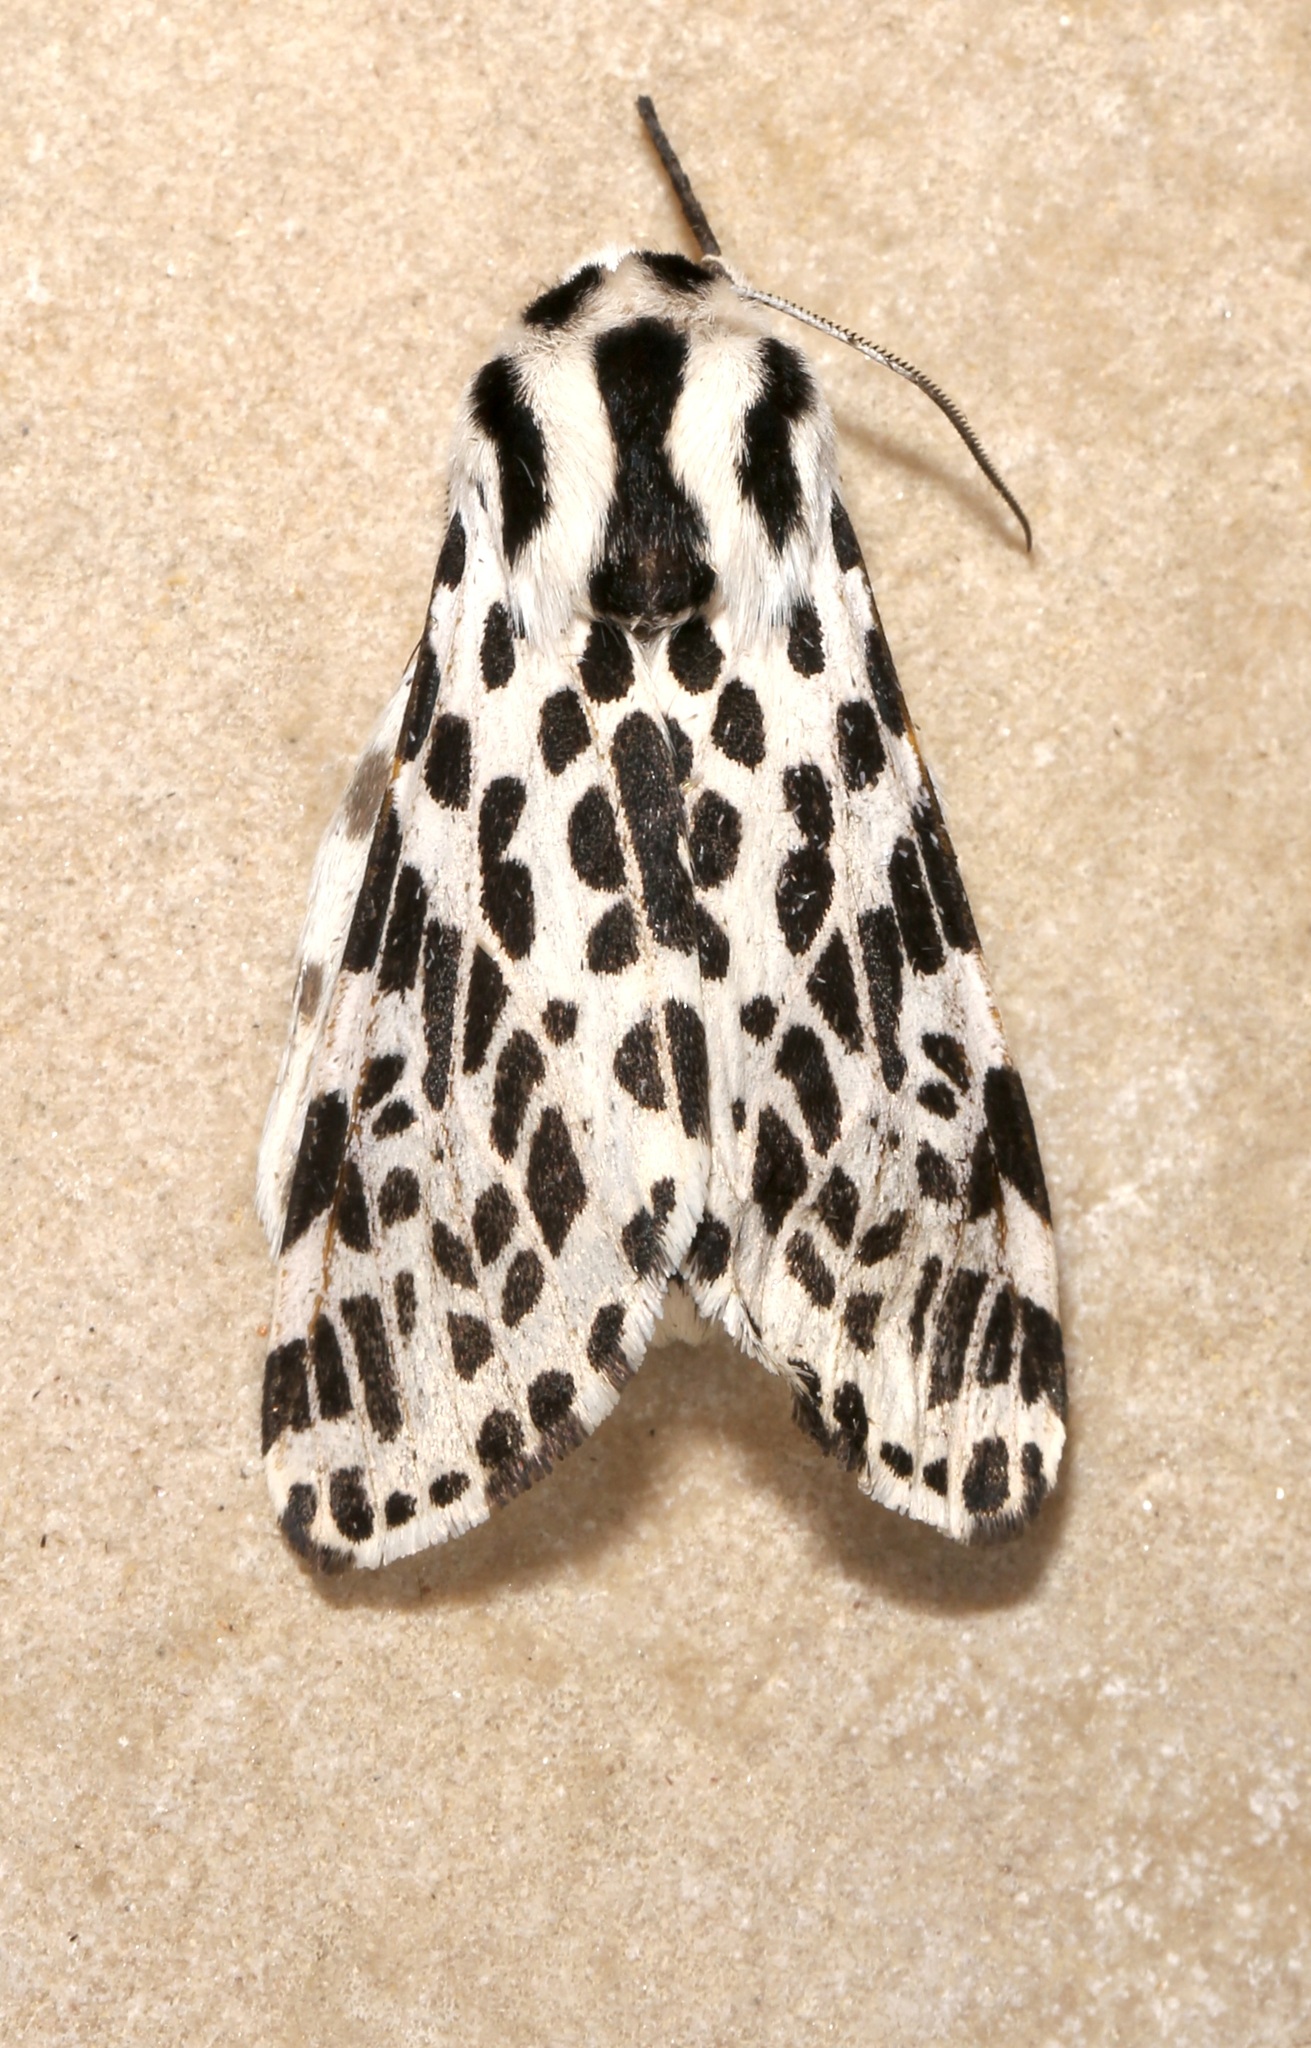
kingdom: Animalia
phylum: Arthropoda
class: Insecta
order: Lepidoptera
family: Erebidae
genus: Hypercompe
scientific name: Hypercompe permaculata
